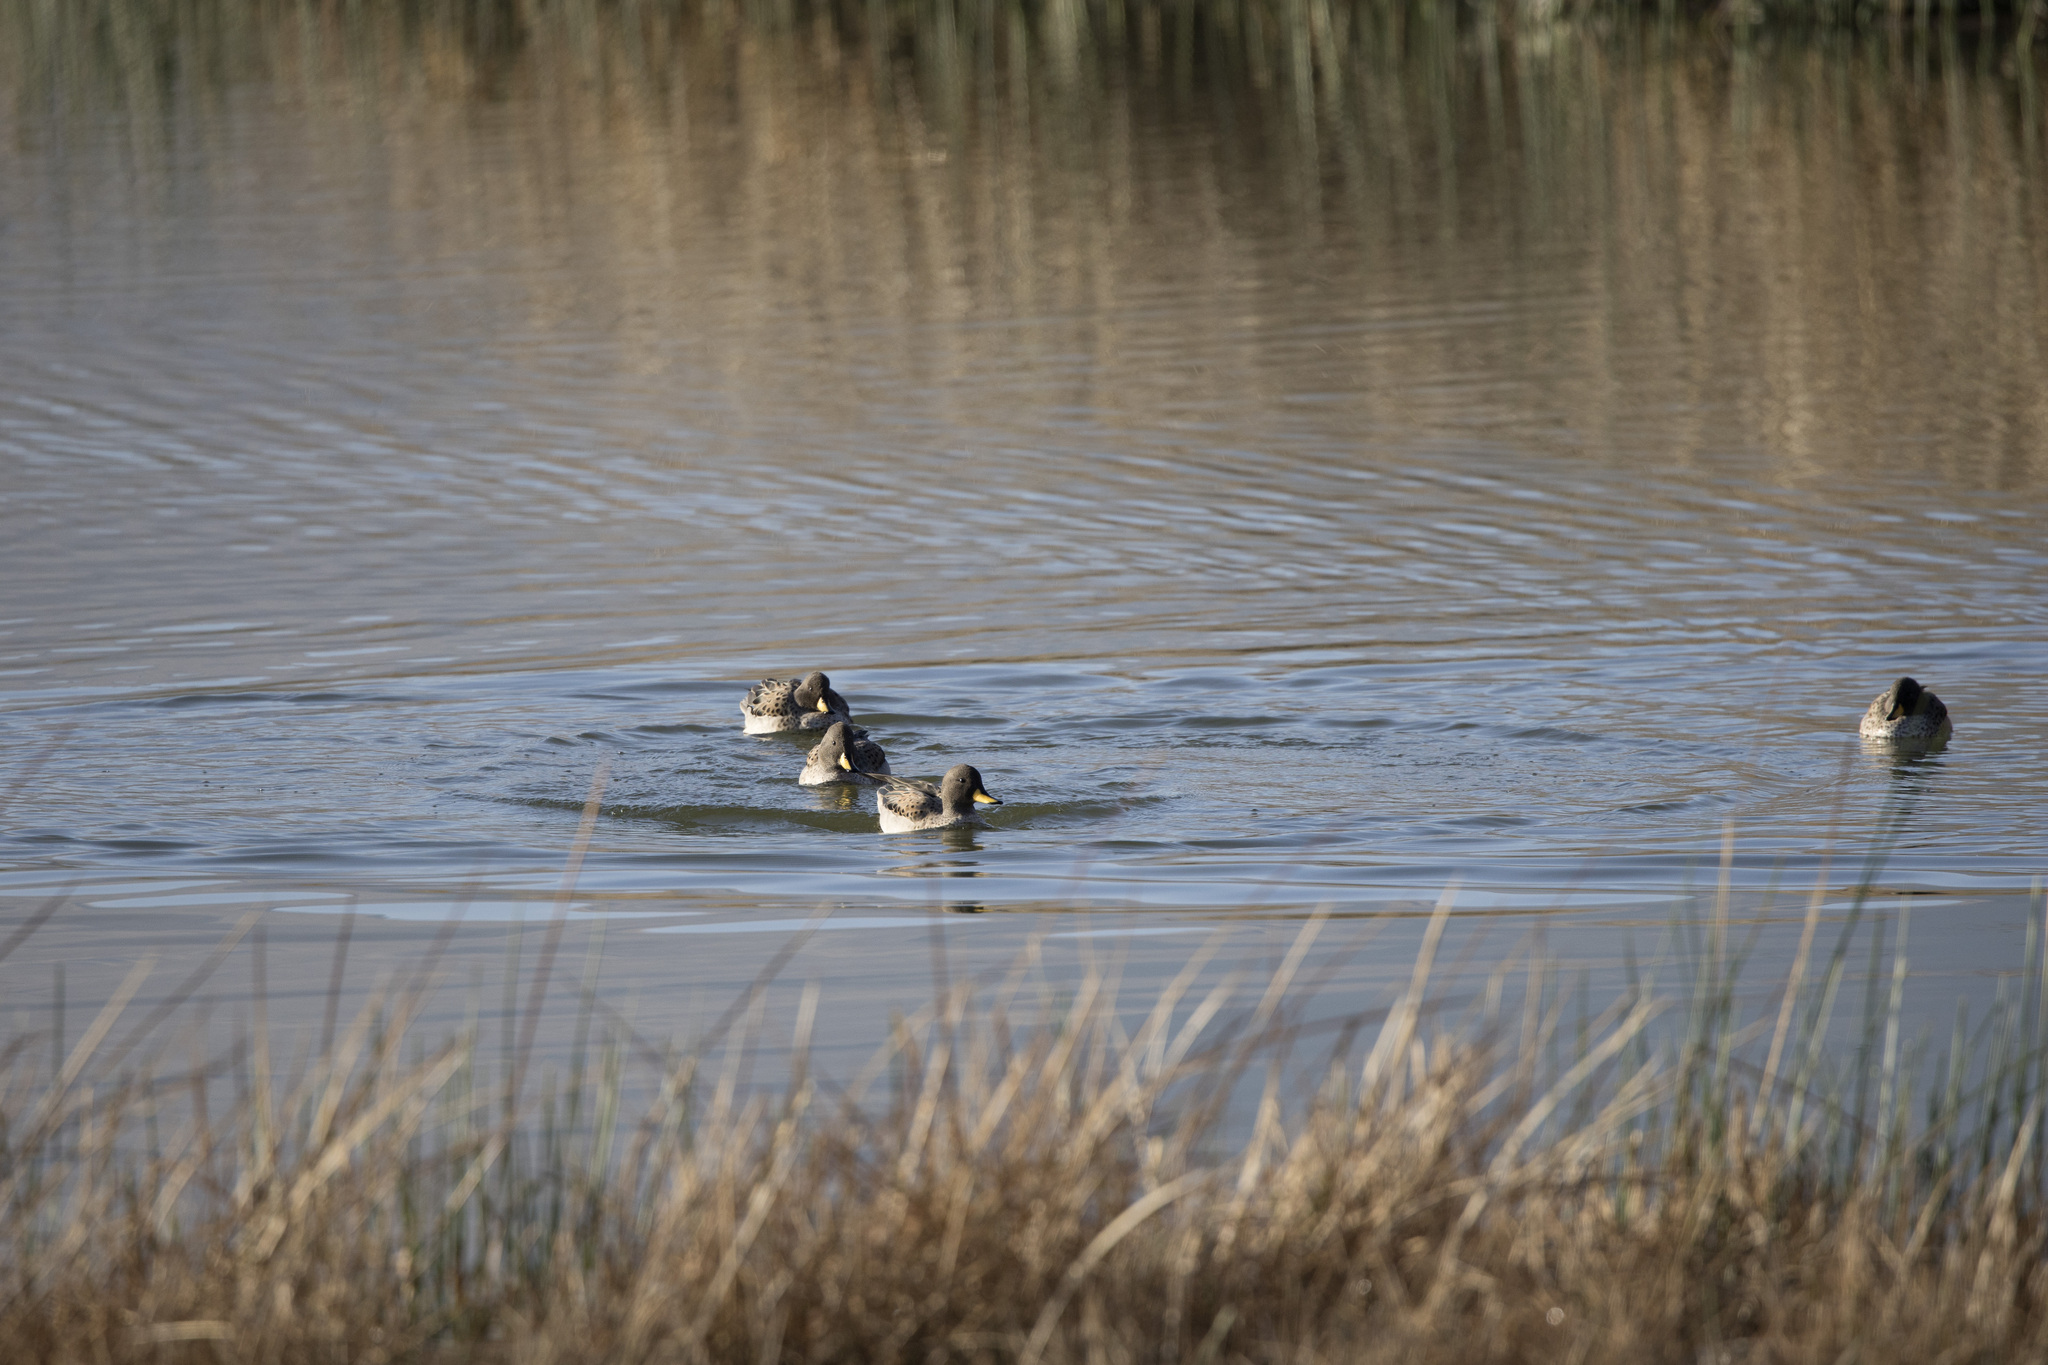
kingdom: Animalia
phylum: Chordata
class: Aves
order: Anseriformes
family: Anatidae
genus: Anas
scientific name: Anas flavirostris
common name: Yellow-billed teal
